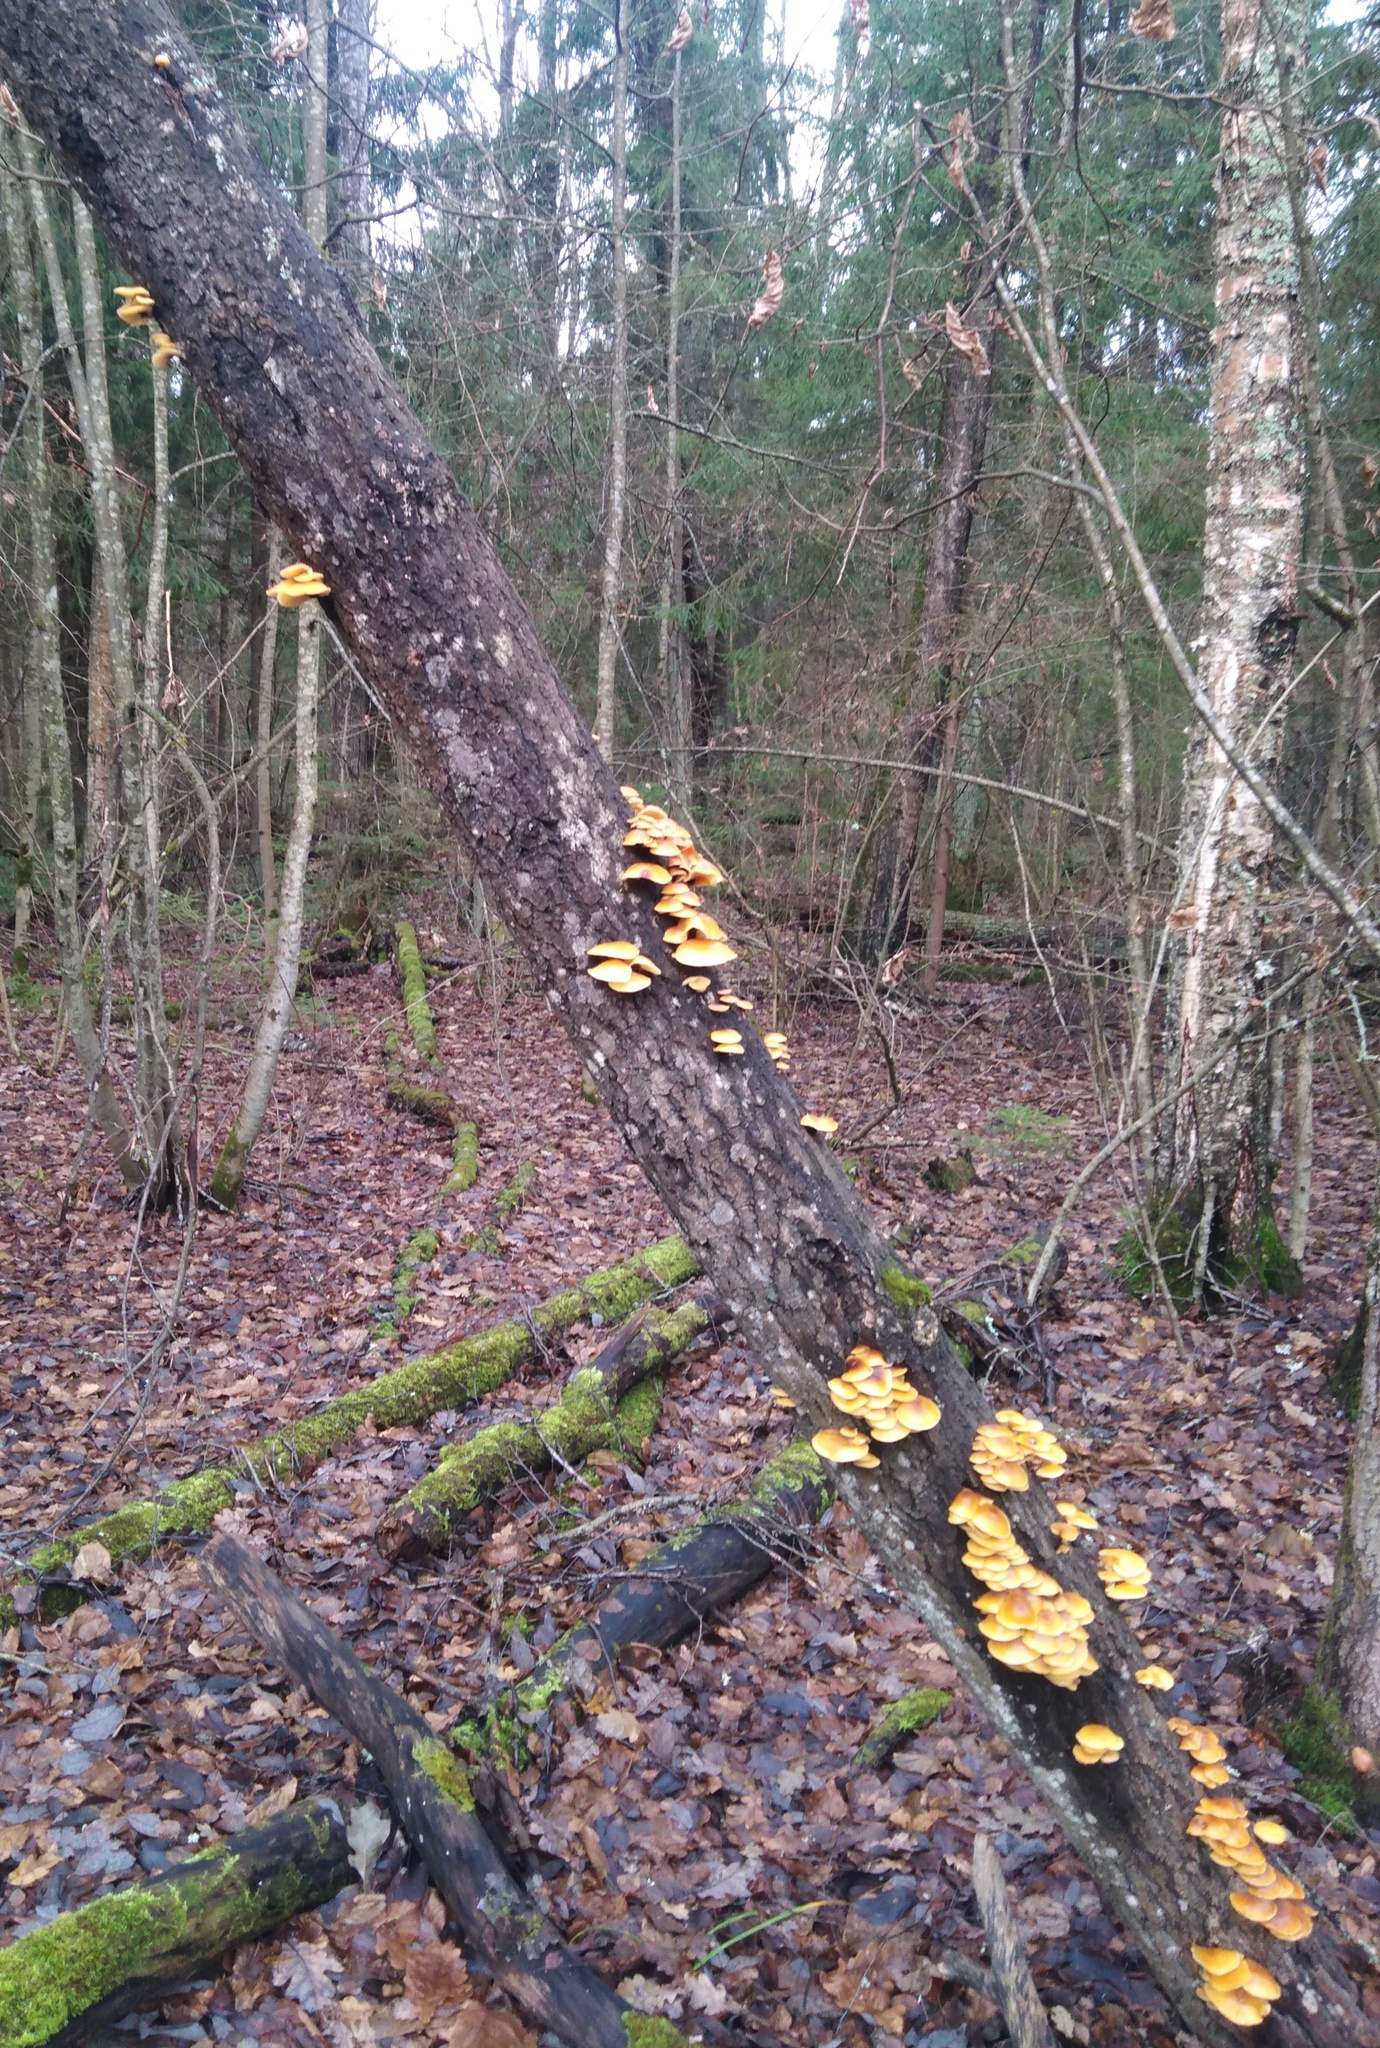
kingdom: Fungi
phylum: Basidiomycota
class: Agaricomycetes
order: Agaricales
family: Physalacriaceae
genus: Flammulina
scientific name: Flammulina
